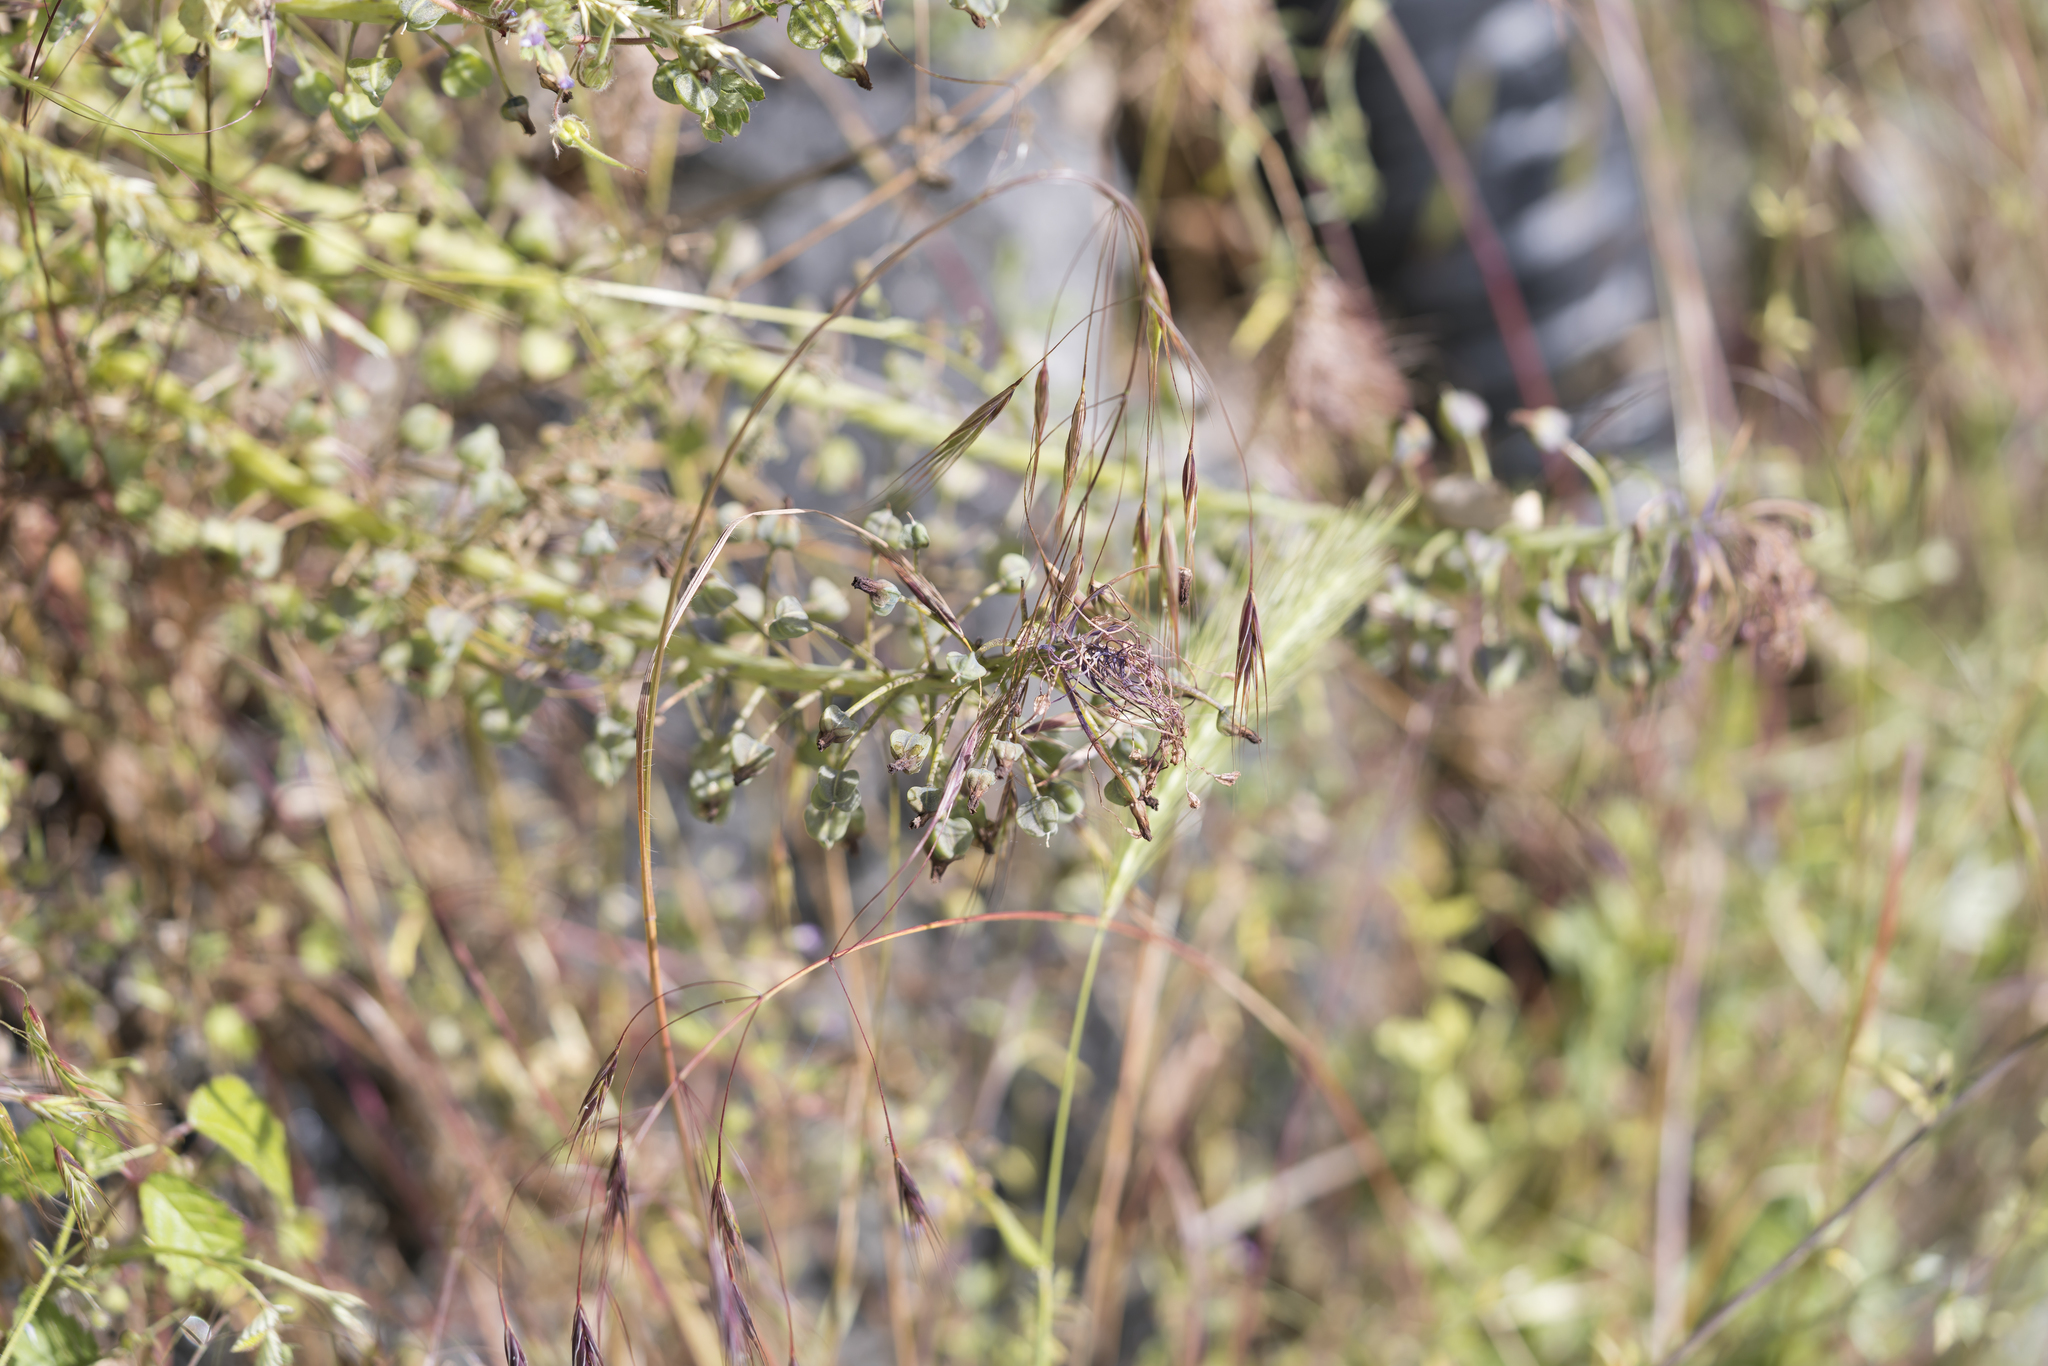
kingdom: Plantae
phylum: Tracheophyta
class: Liliopsida
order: Asparagales
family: Asparagaceae
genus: Muscari
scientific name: Muscari comosum
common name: Tassel hyacinth
